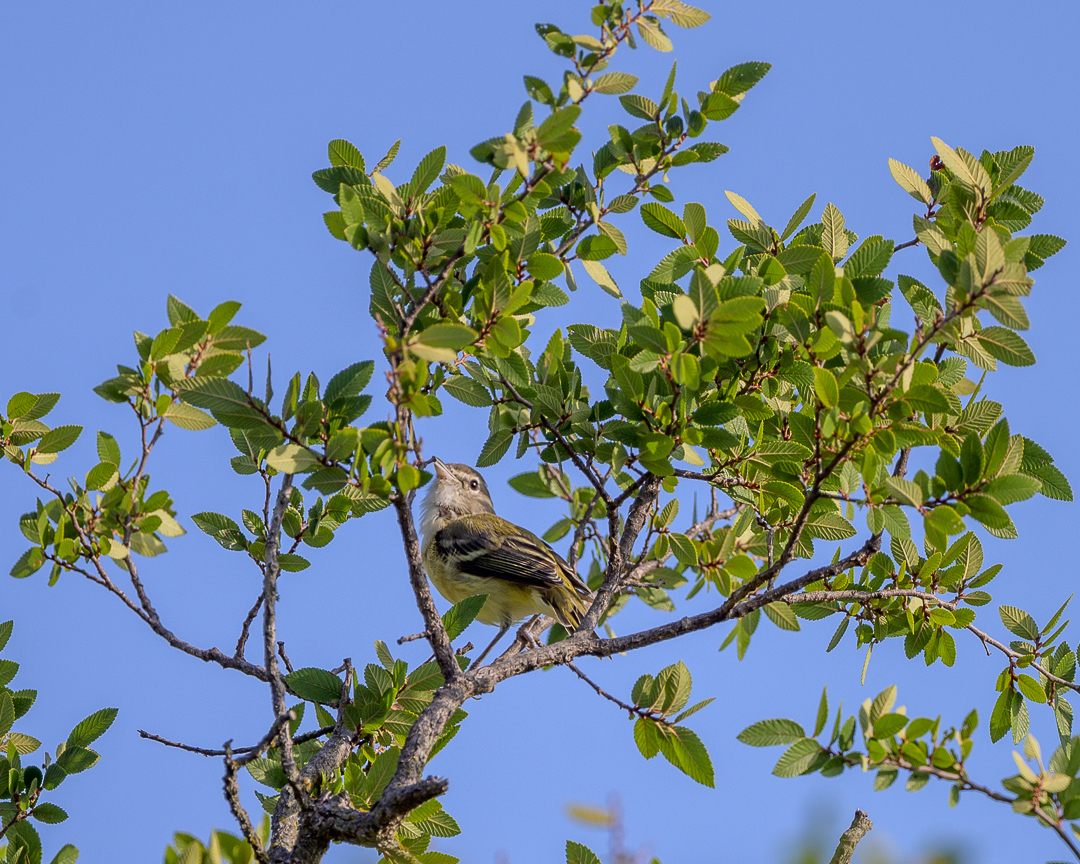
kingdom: Animalia
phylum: Chordata
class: Aves
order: Passeriformes
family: Vireonidae
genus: Vireo
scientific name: Vireo bellii
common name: Bell's vireo
